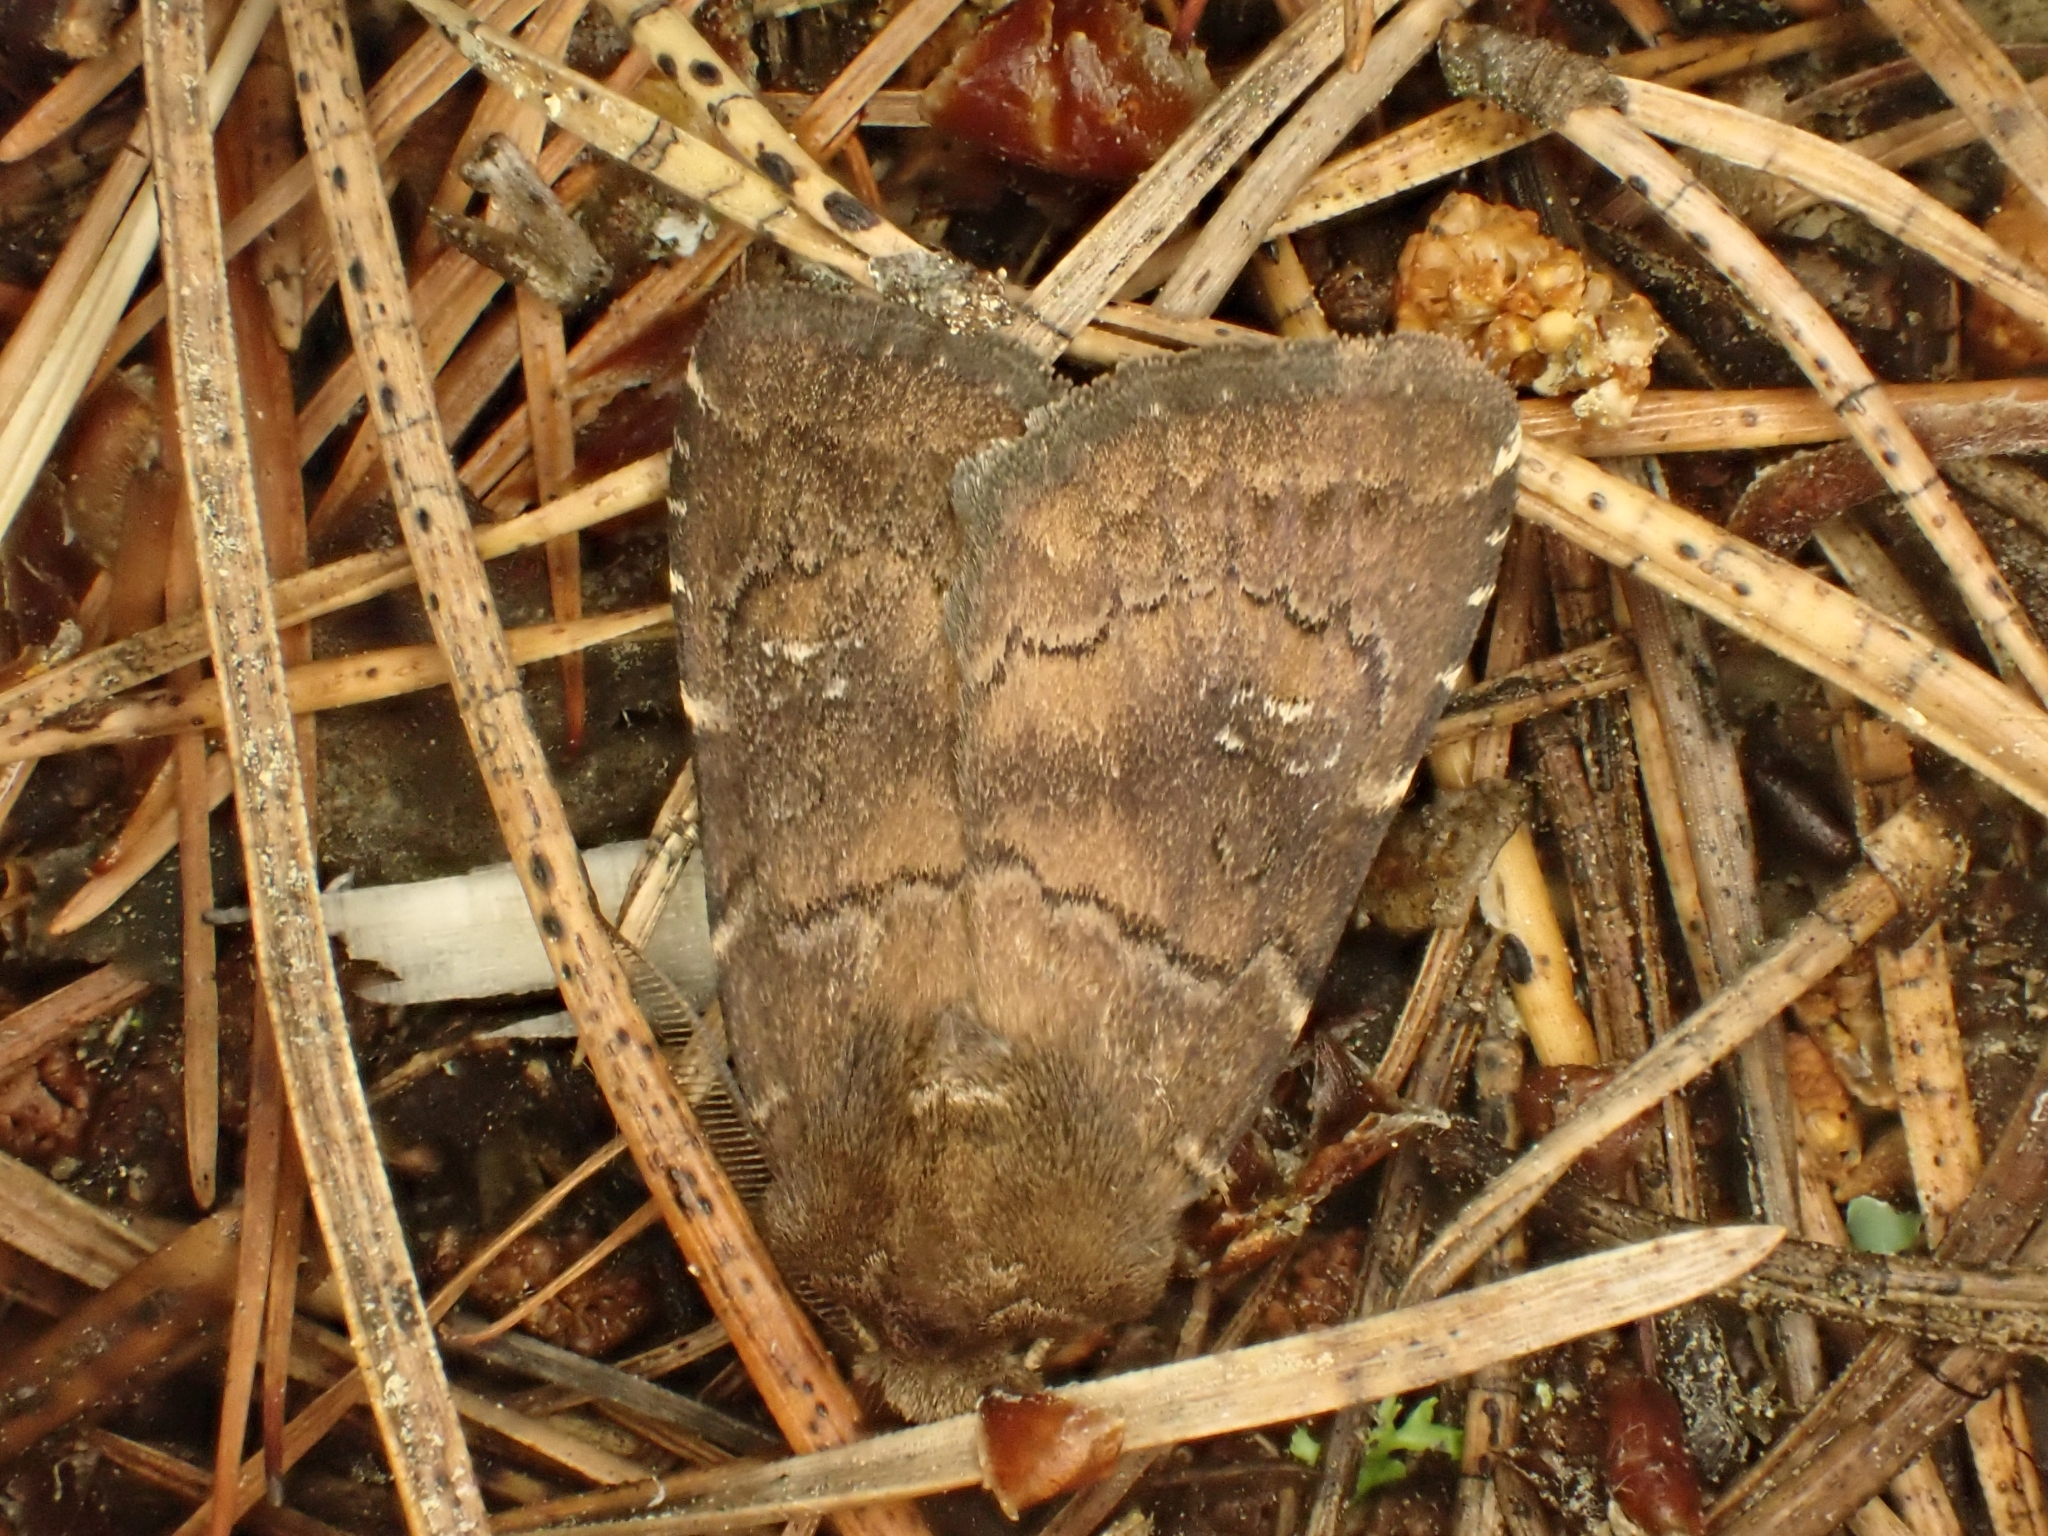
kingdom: Animalia
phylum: Arthropoda
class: Insecta
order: Lepidoptera
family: Noctuidae
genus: Charanyca
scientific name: Charanyca ferruginea
